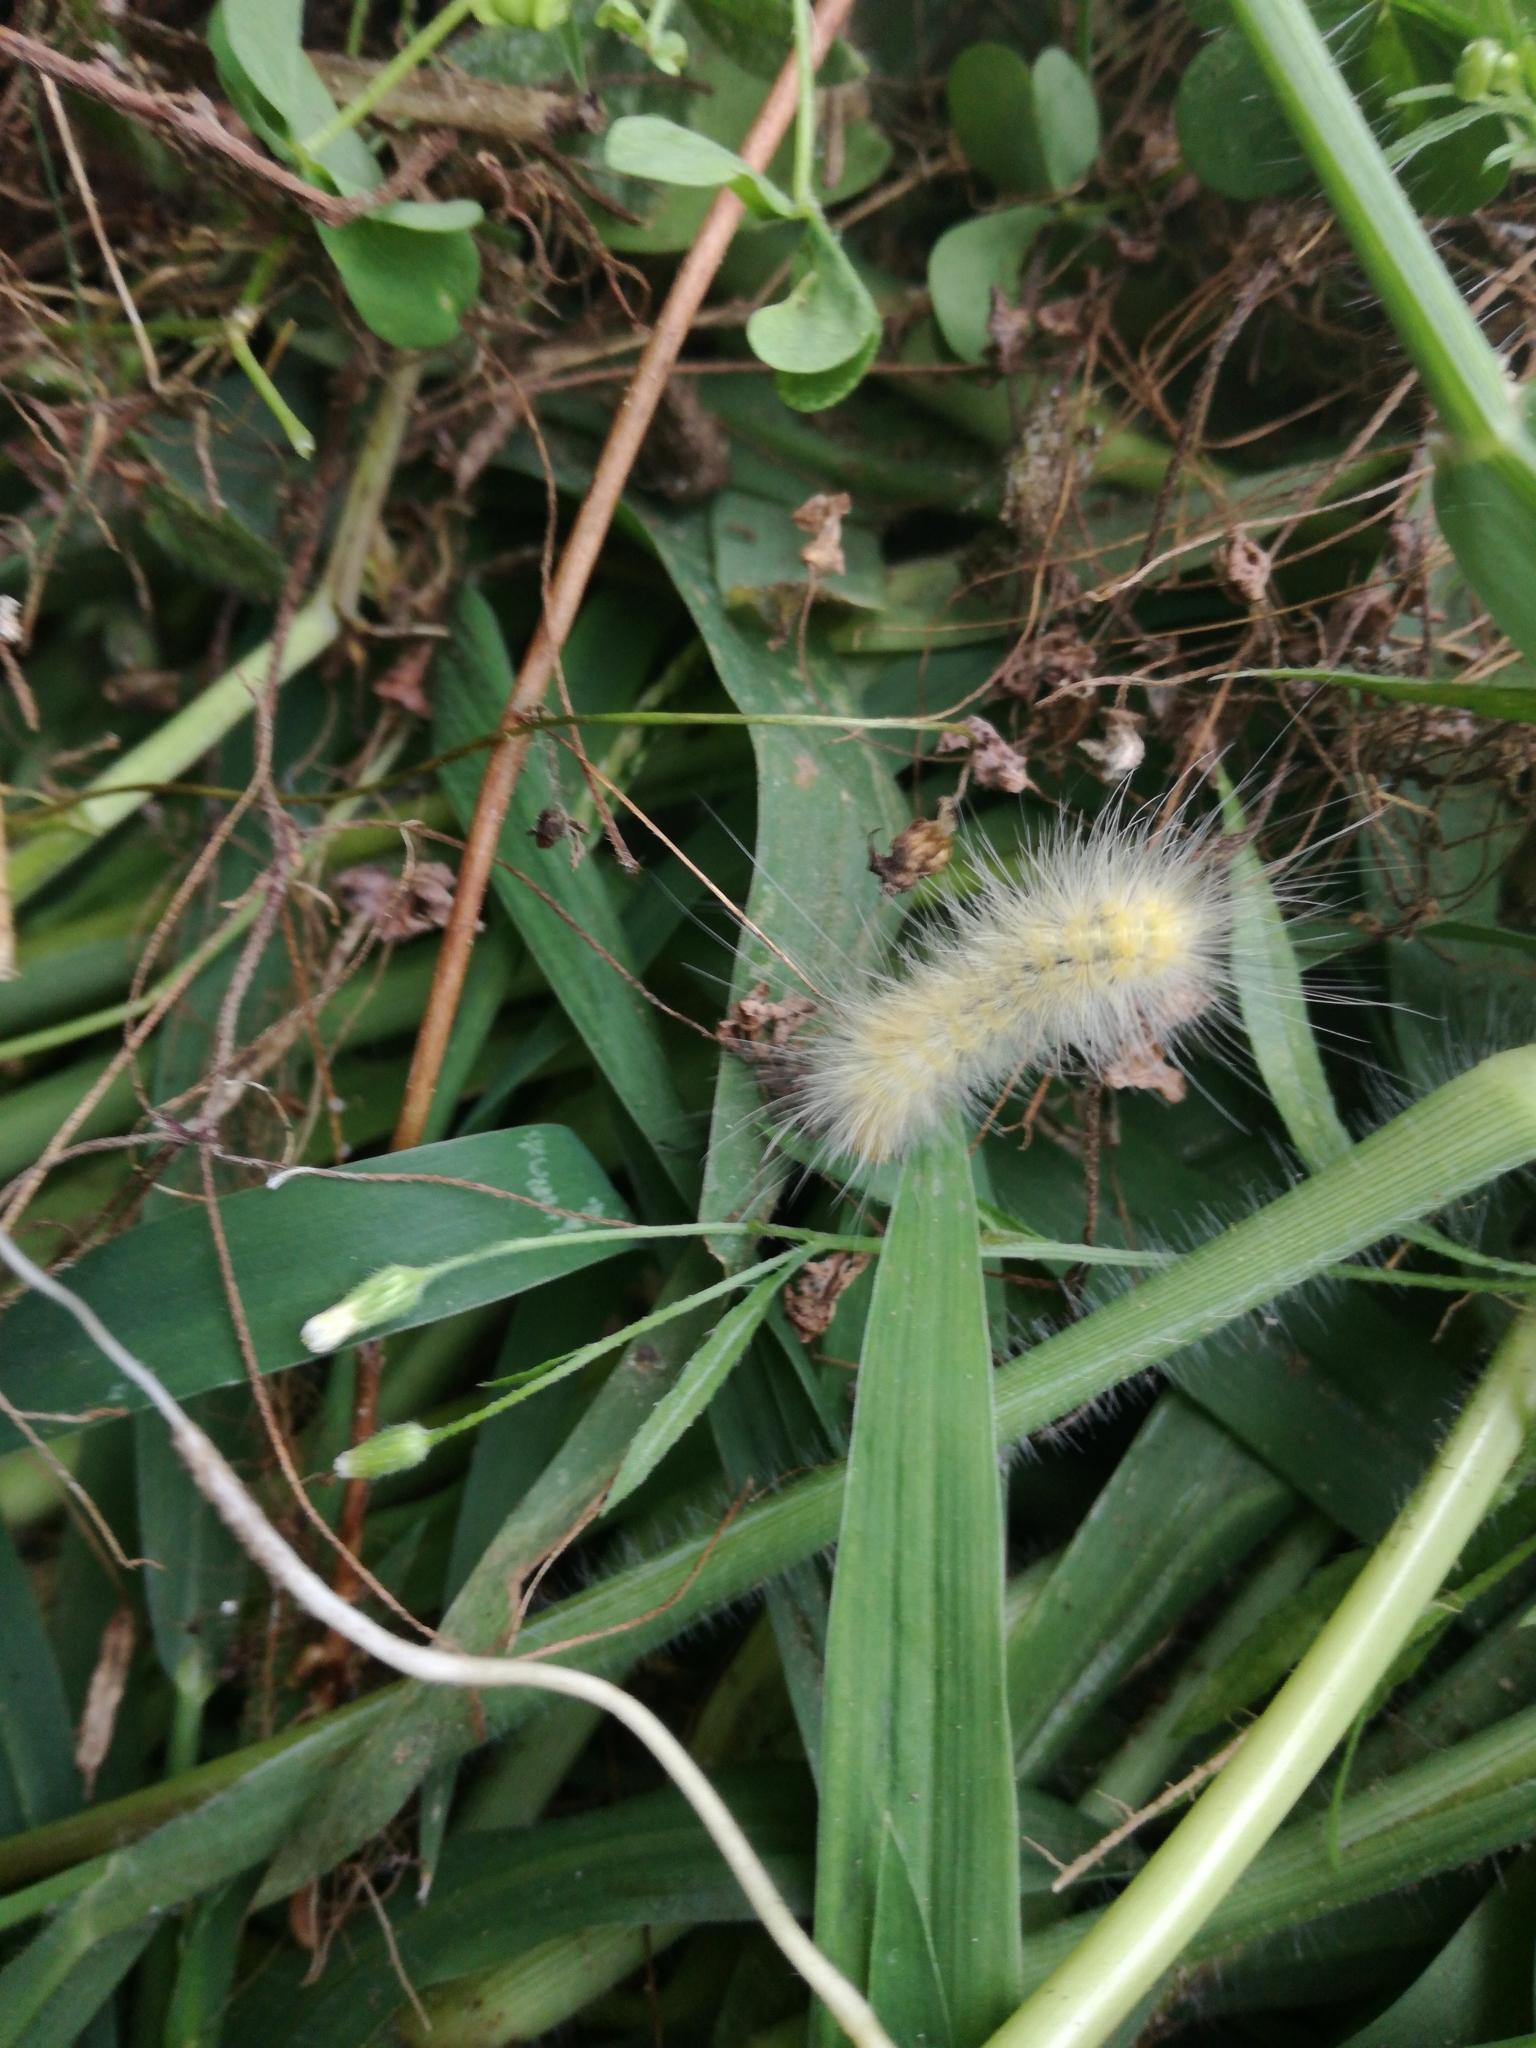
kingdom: Animalia
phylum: Arthropoda
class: Insecta
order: Lepidoptera
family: Erebidae
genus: Spilosoma
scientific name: Spilosoma virginica
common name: Virginia tiger moth
